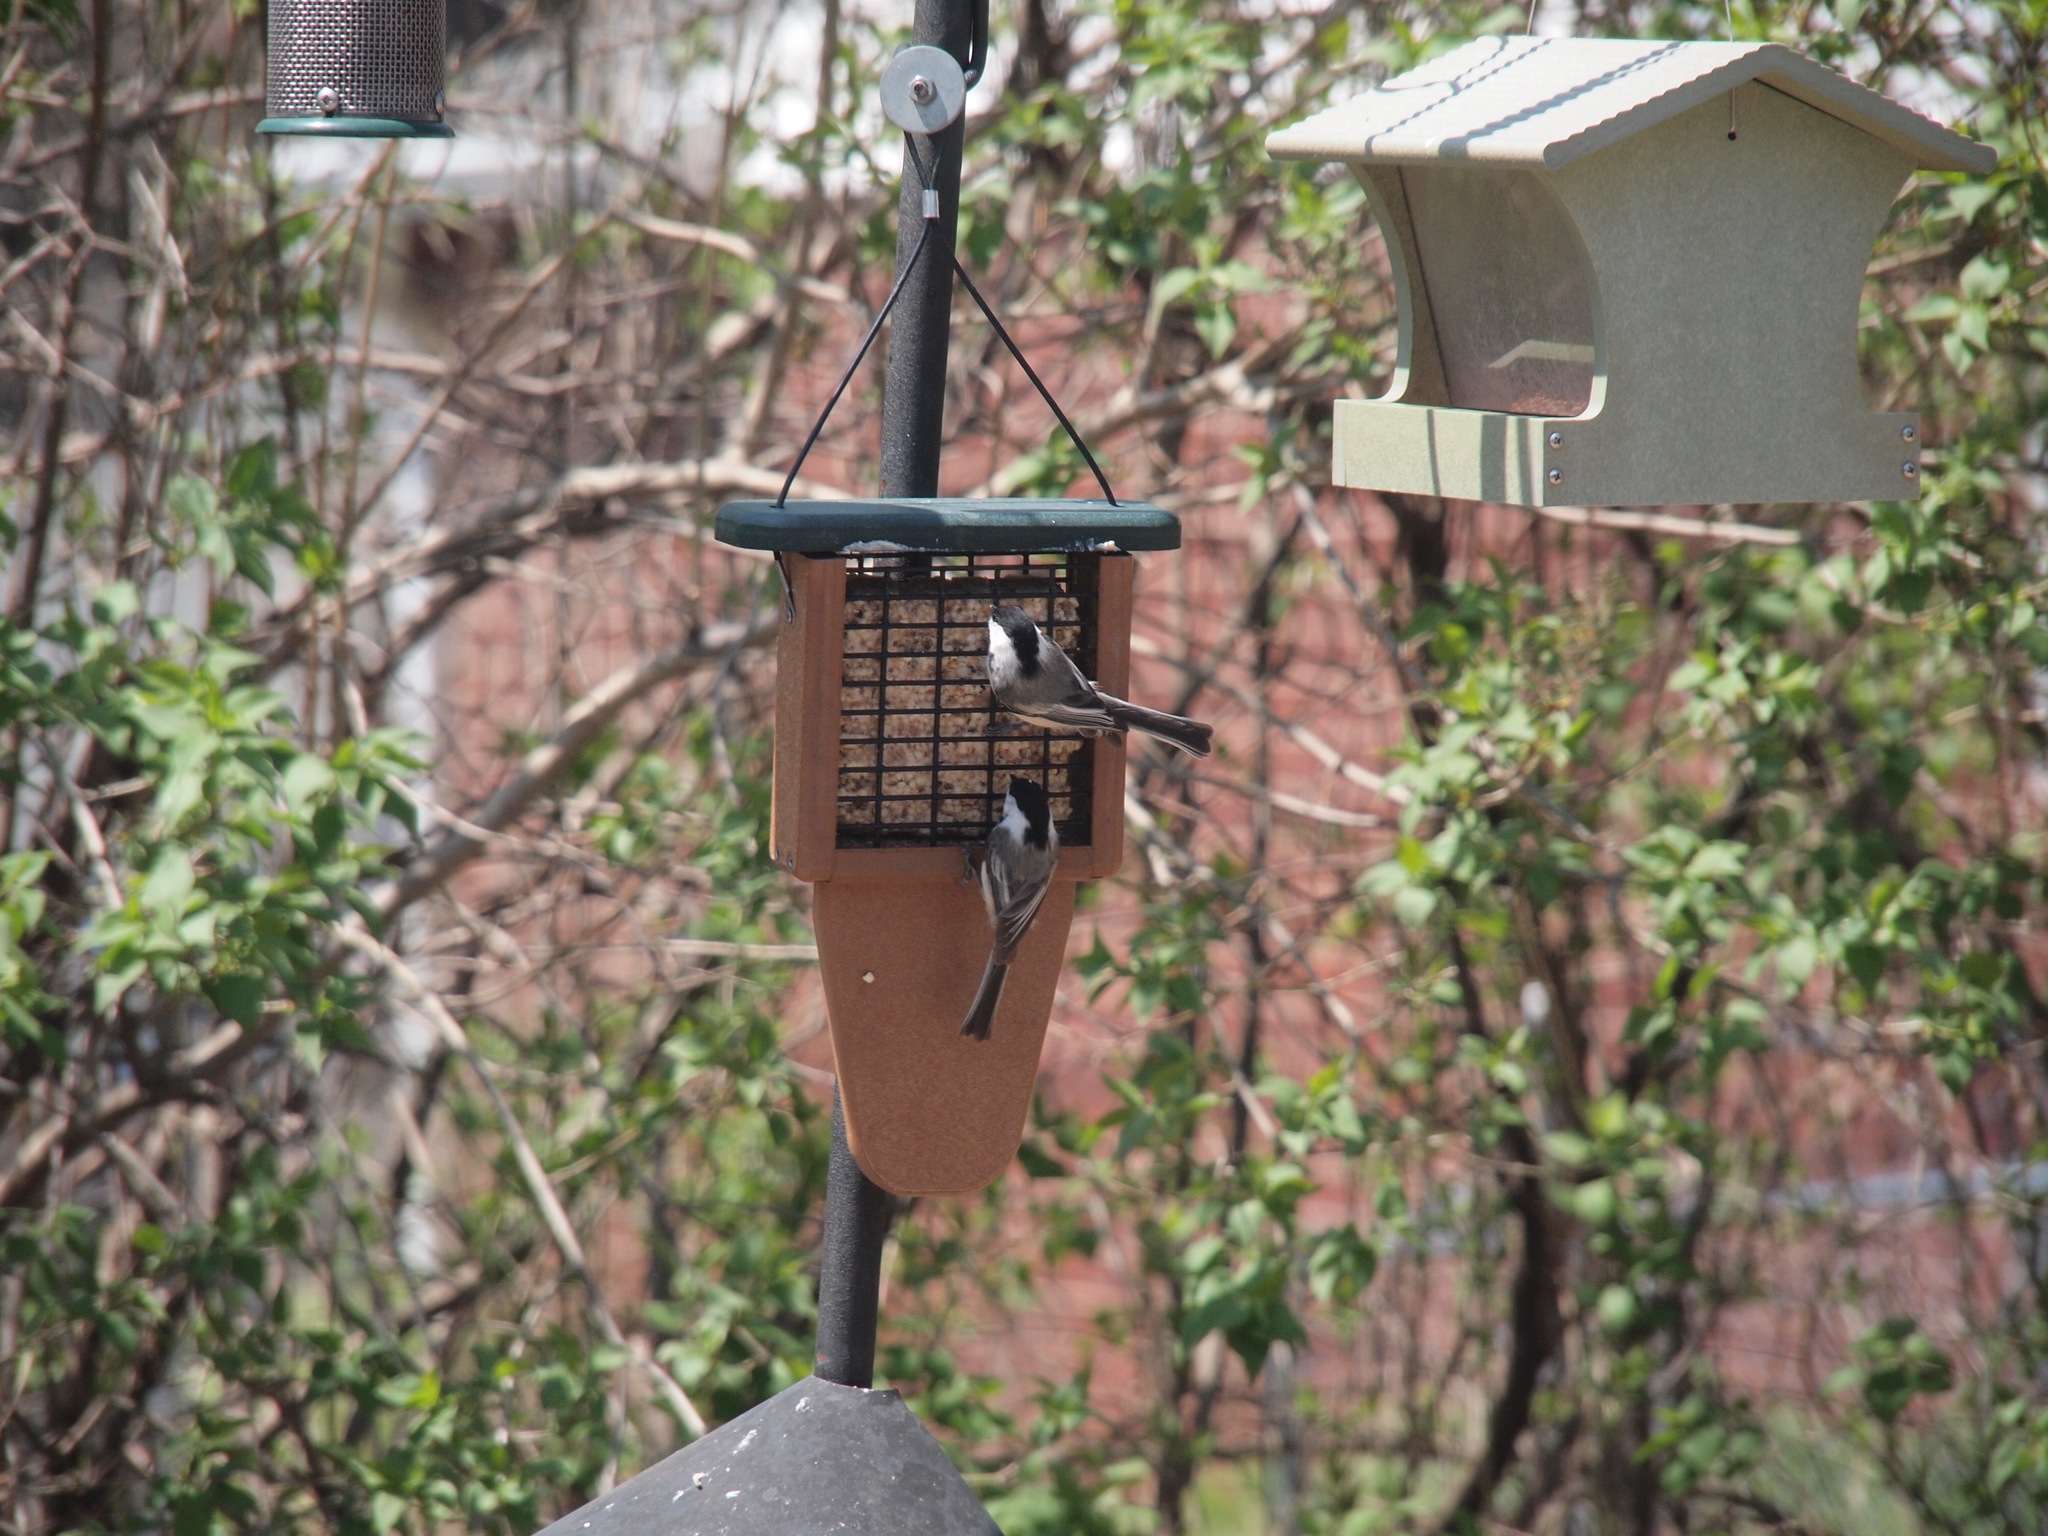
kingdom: Animalia
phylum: Chordata
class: Aves
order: Passeriformes
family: Paridae
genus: Poecile
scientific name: Poecile atricapillus
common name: Black-capped chickadee
